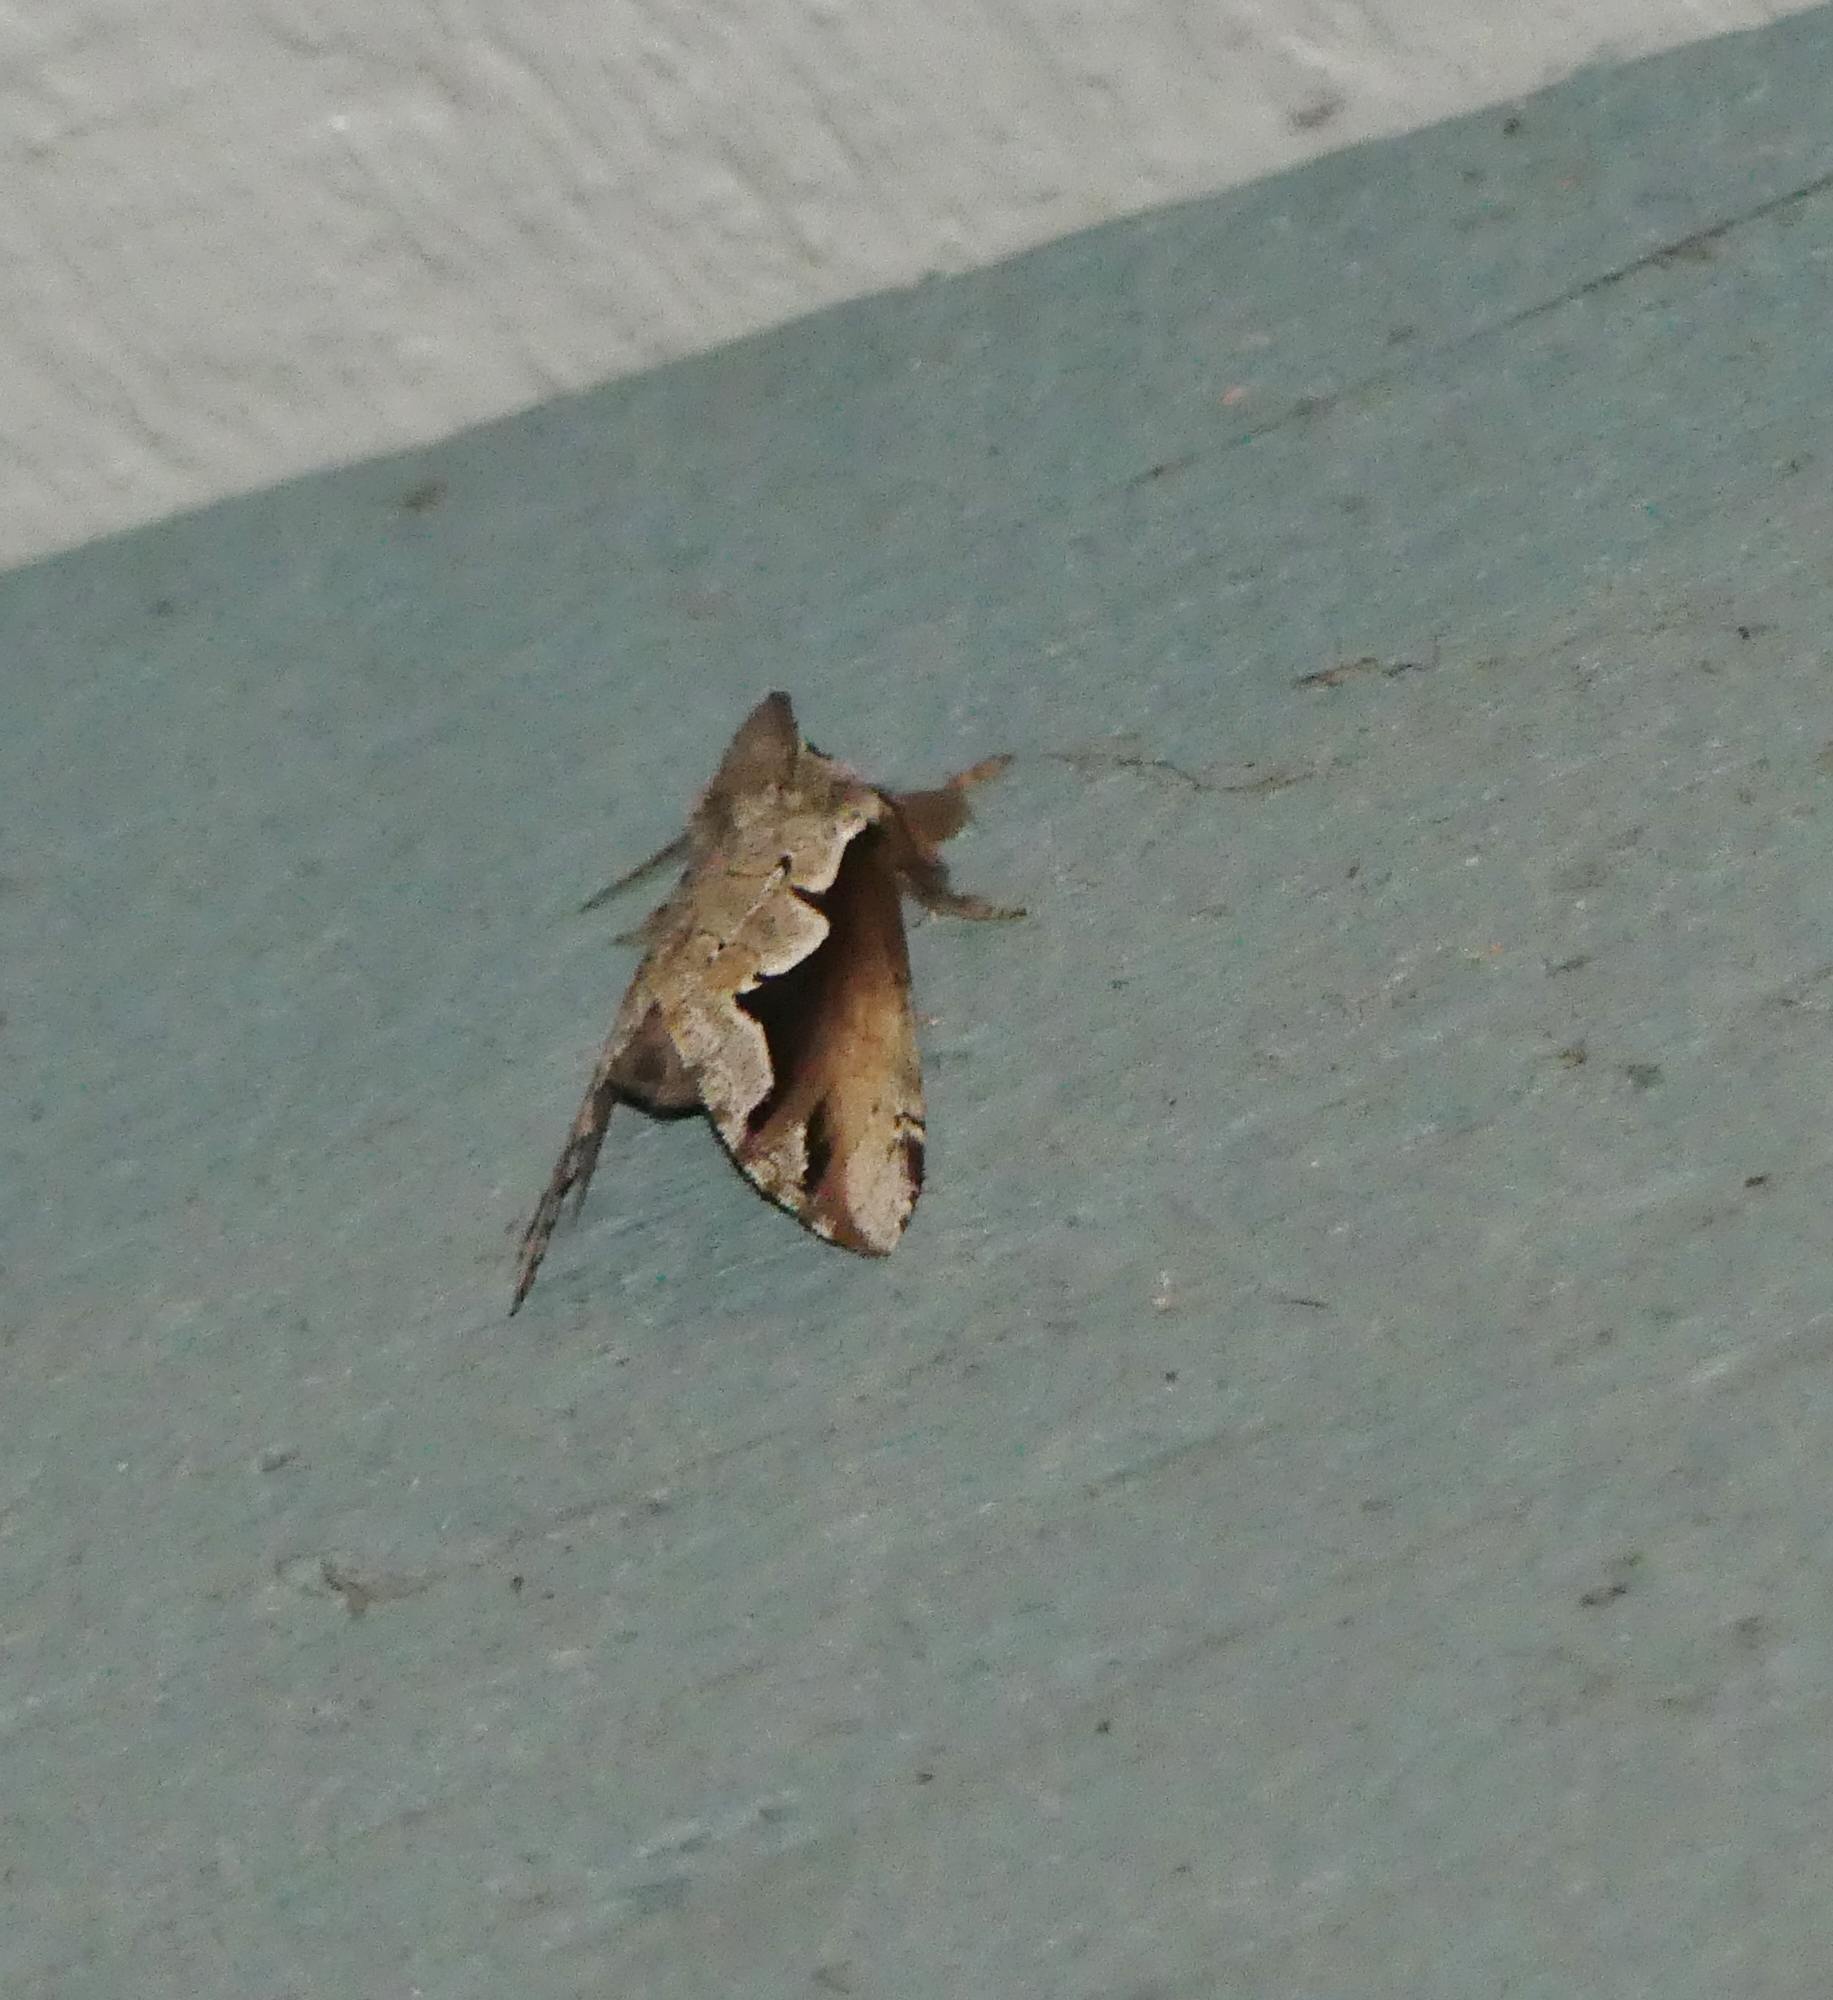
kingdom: Animalia
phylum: Arthropoda
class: Insecta
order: Lepidoptera
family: Notodontidae
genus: Nerice
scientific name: Nerice bidentata
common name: Double-toothed prominent
